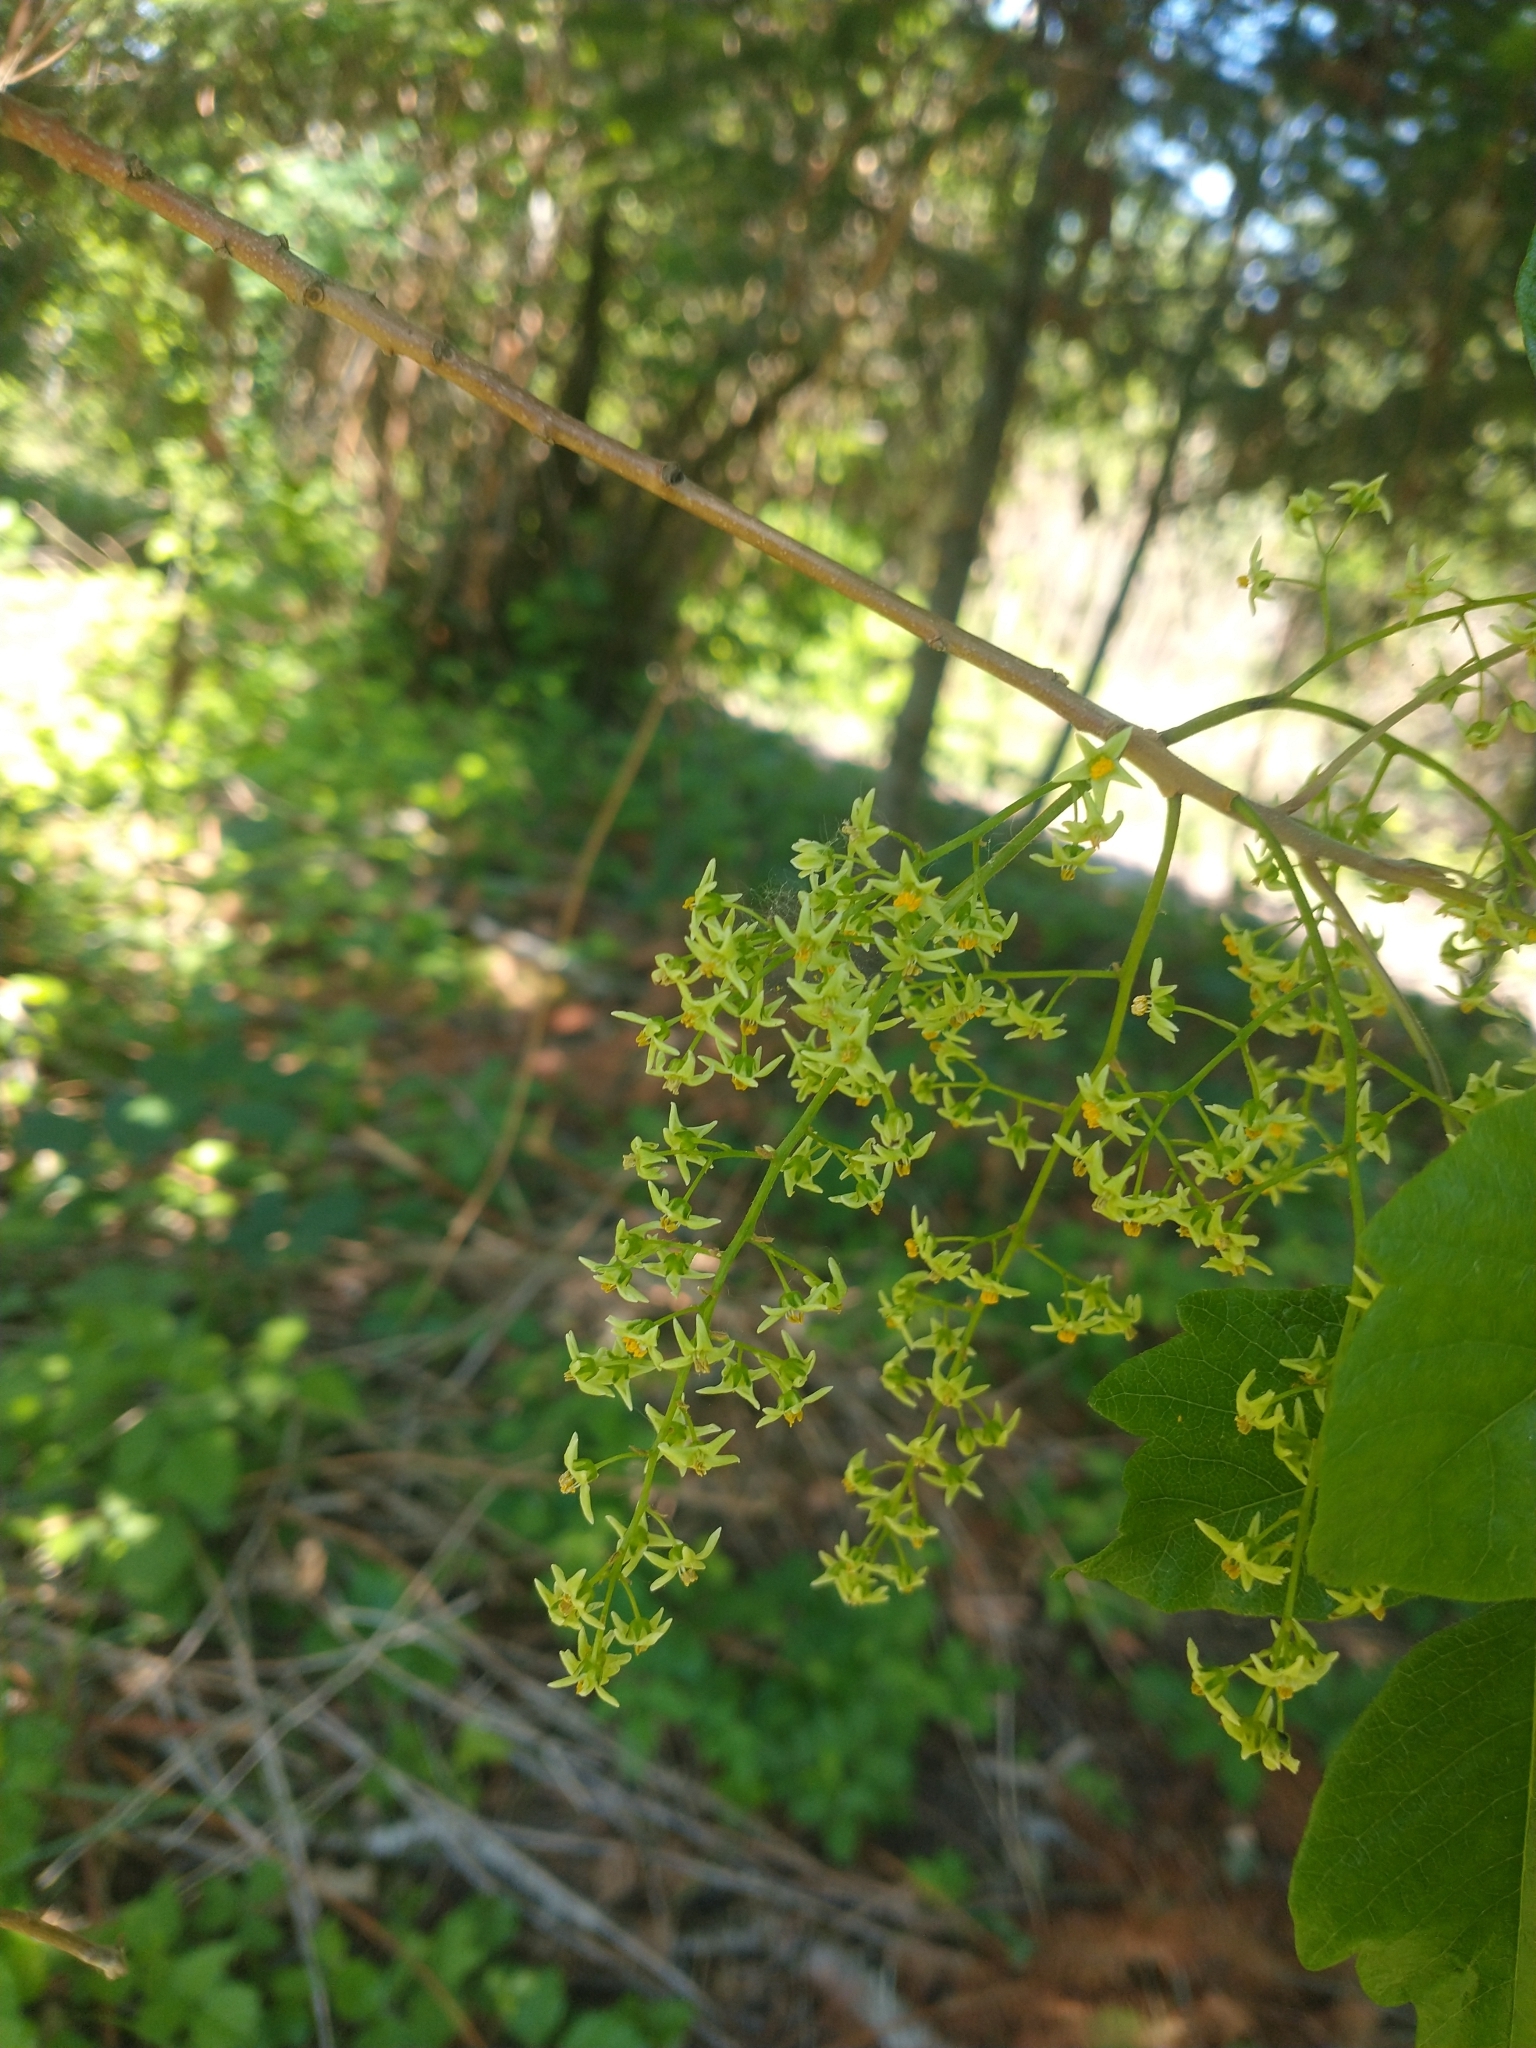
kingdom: Plantae
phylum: Tracheophyta
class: Magnoliopsida
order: Sapindales
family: Anacardiaceae
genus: Toxicodendron
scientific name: Toxicodendron diversilobum
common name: Pacific poison-oak
